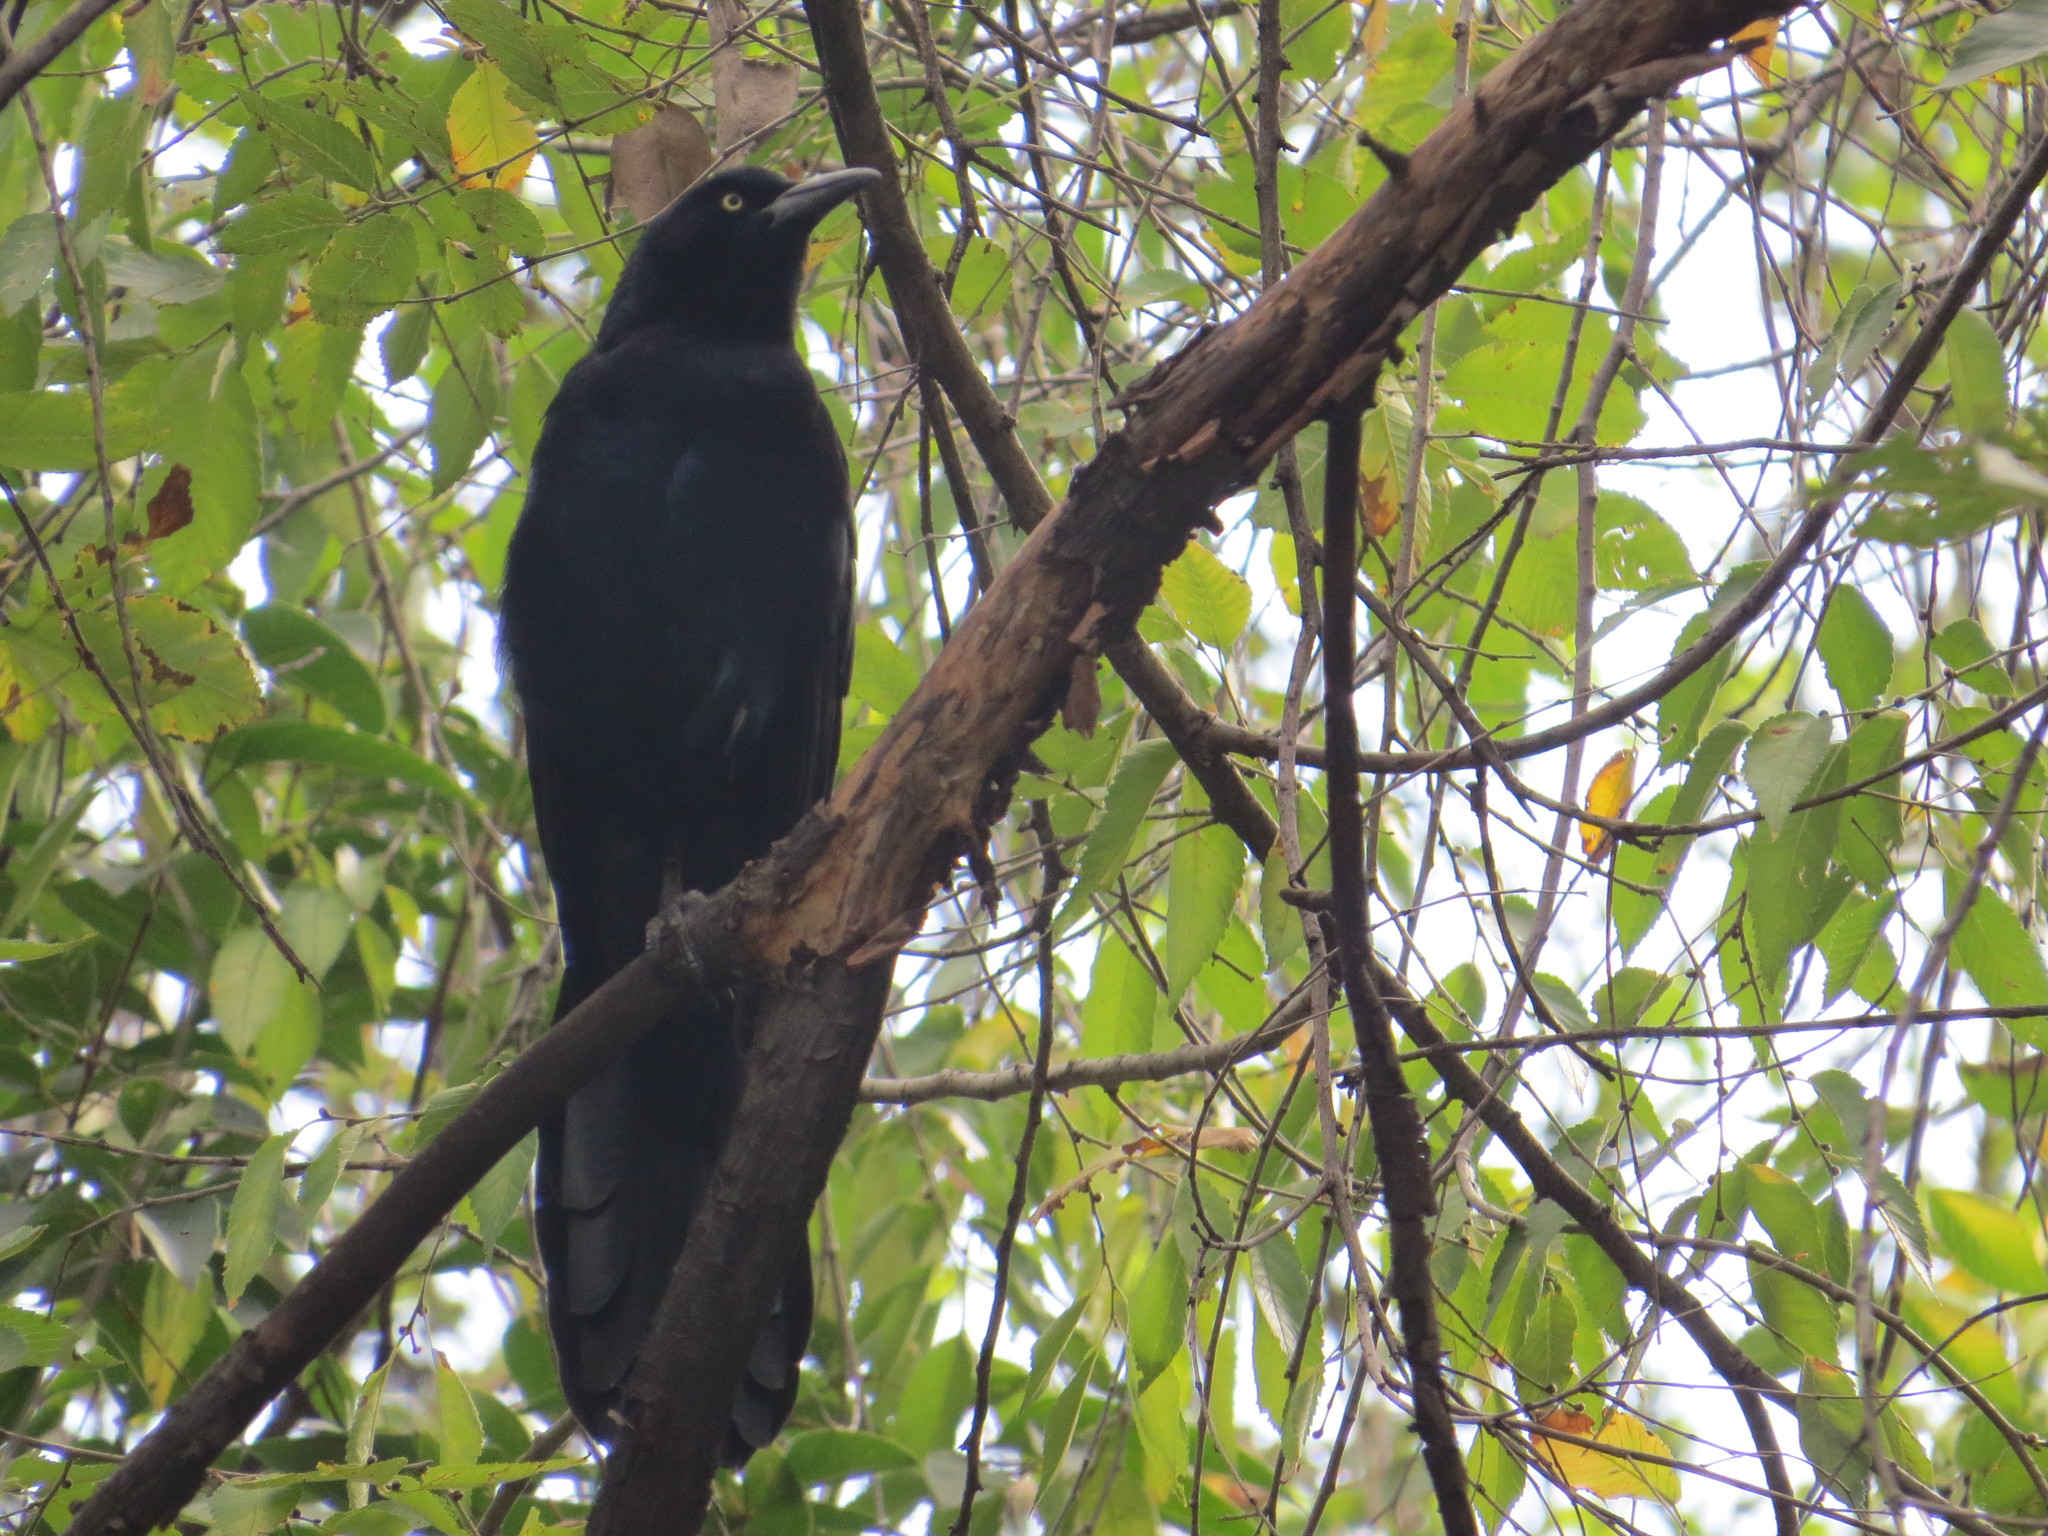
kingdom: Animalia
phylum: Chordata
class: Aves
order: Passeriformes
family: Icteridae
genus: Quiscalus
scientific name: Quiscalus mexicanus
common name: Great-tailed grackle
